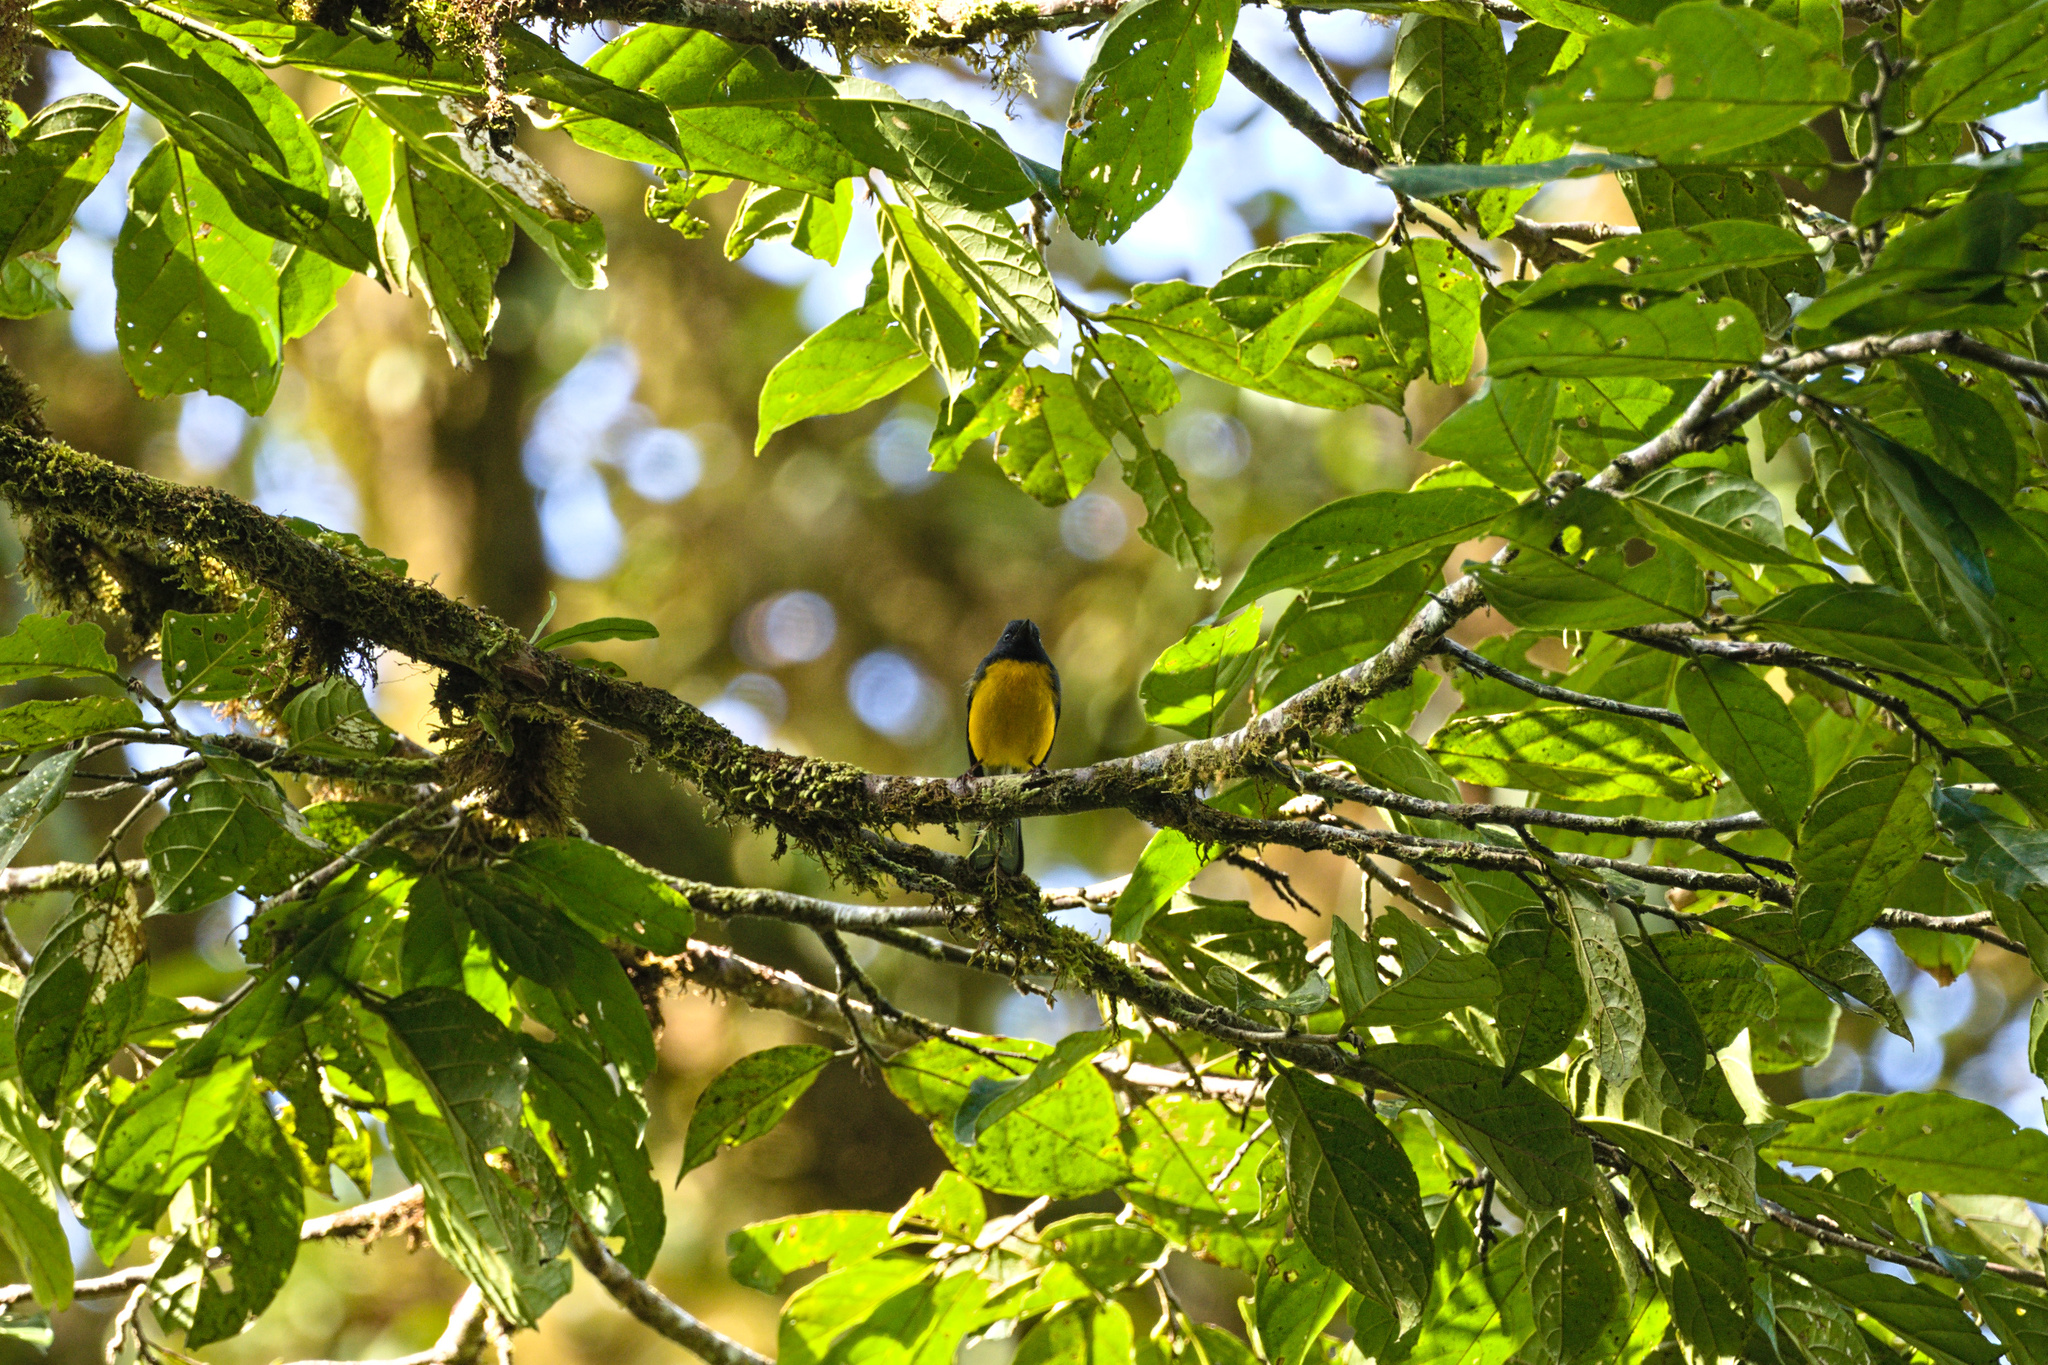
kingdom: Animalia
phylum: Chordata
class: Aves
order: Passeriformes
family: Parulidae
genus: Myioborus
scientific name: Myioborus miniatus
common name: Slate-throated redstart
